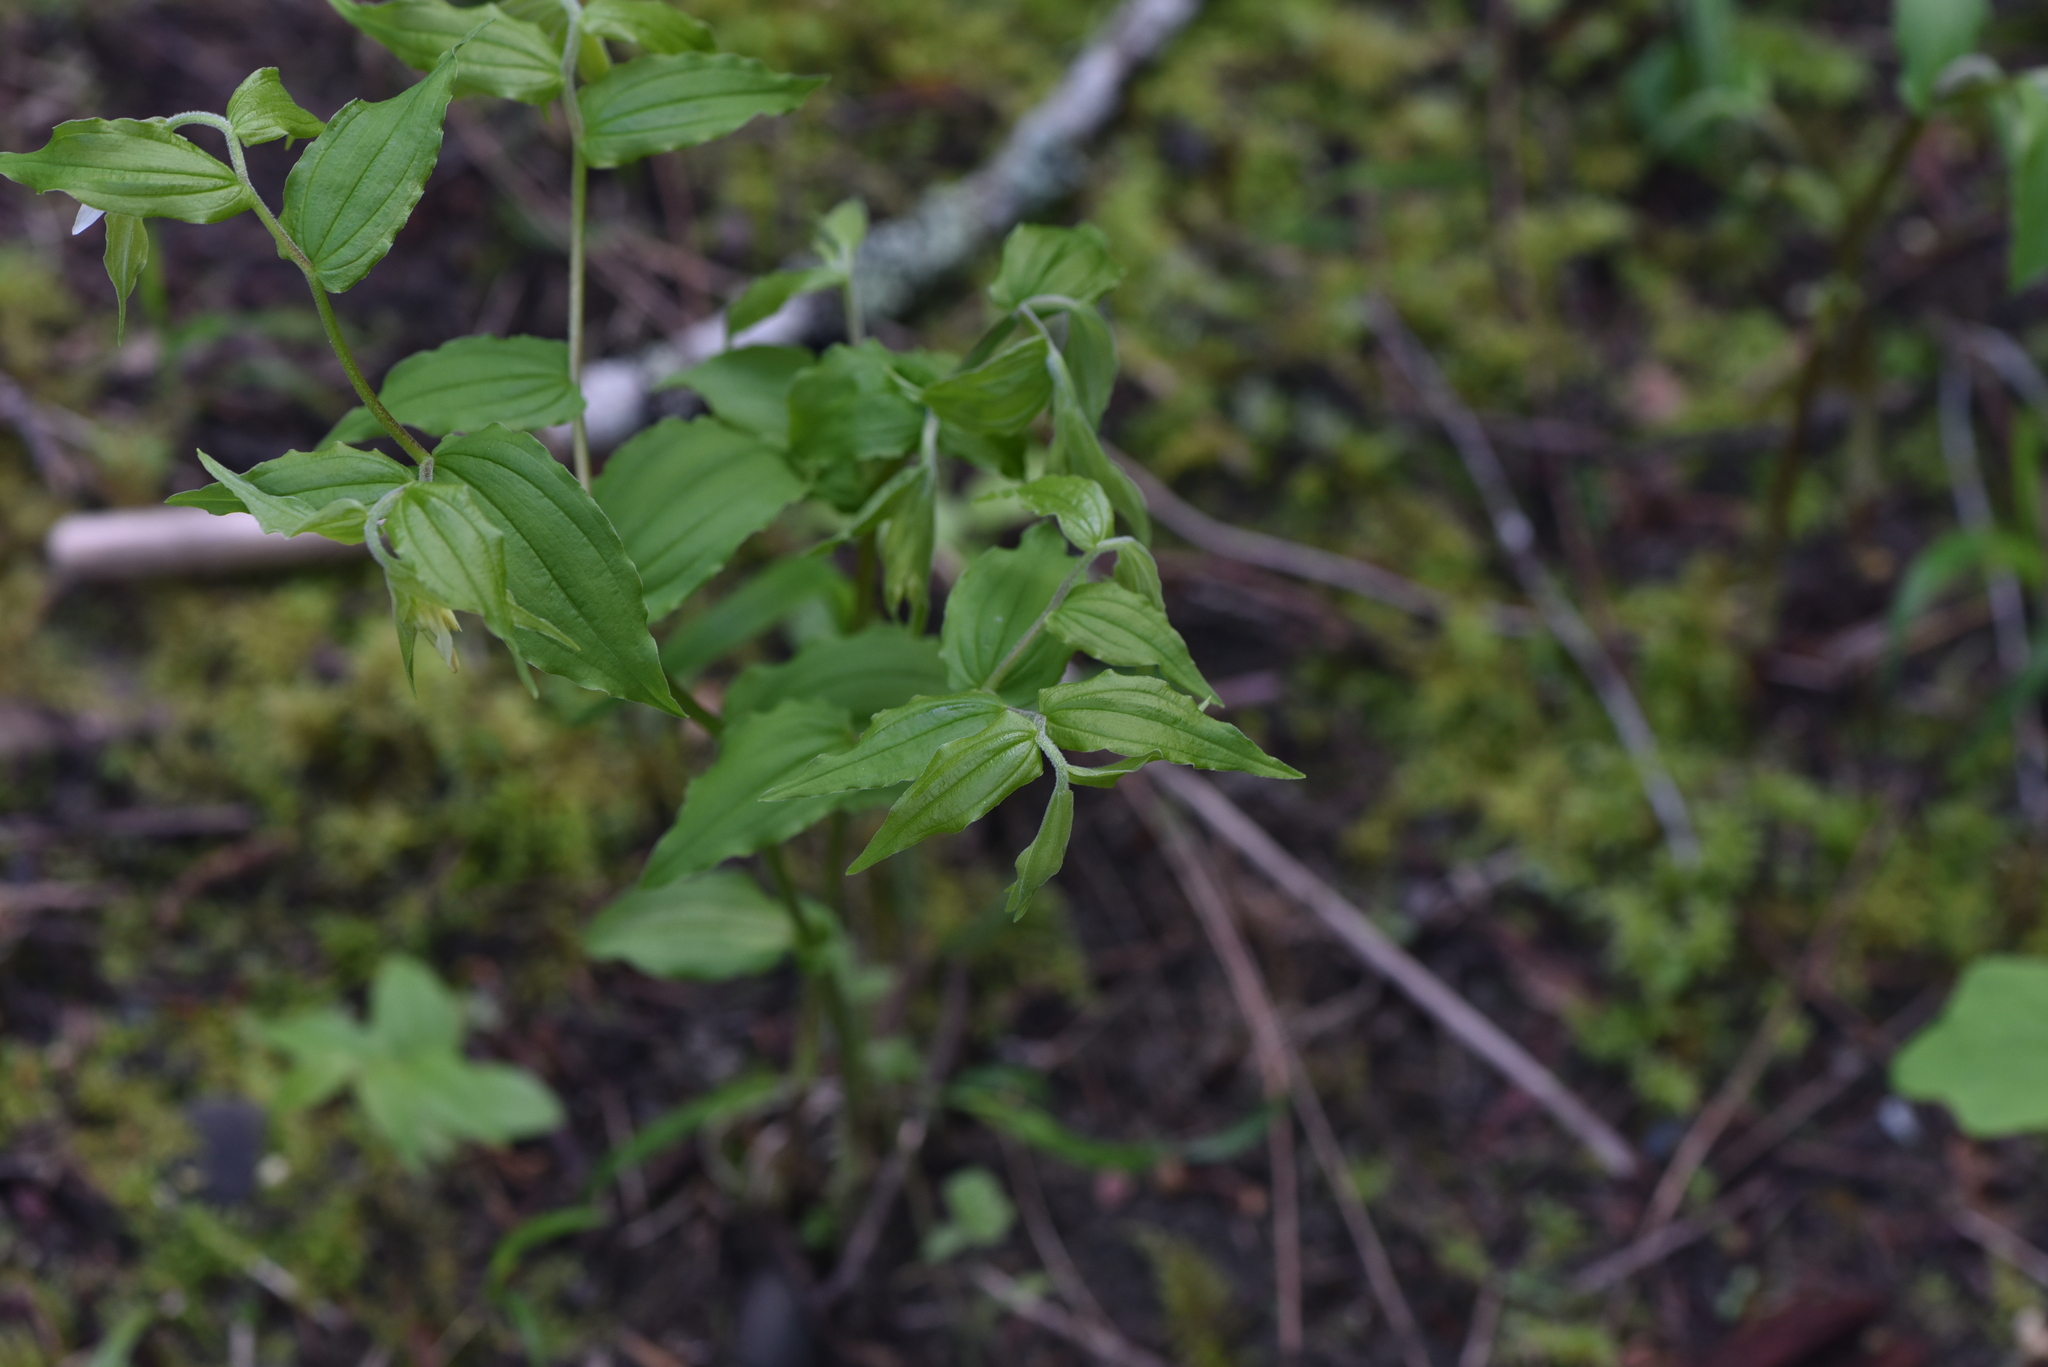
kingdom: Plantae
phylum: Tracheophyta
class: Liliopsida
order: Liliales
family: Liliaceae
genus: Prosartes
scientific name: Prosartes hookeri
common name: Fairy-bells
